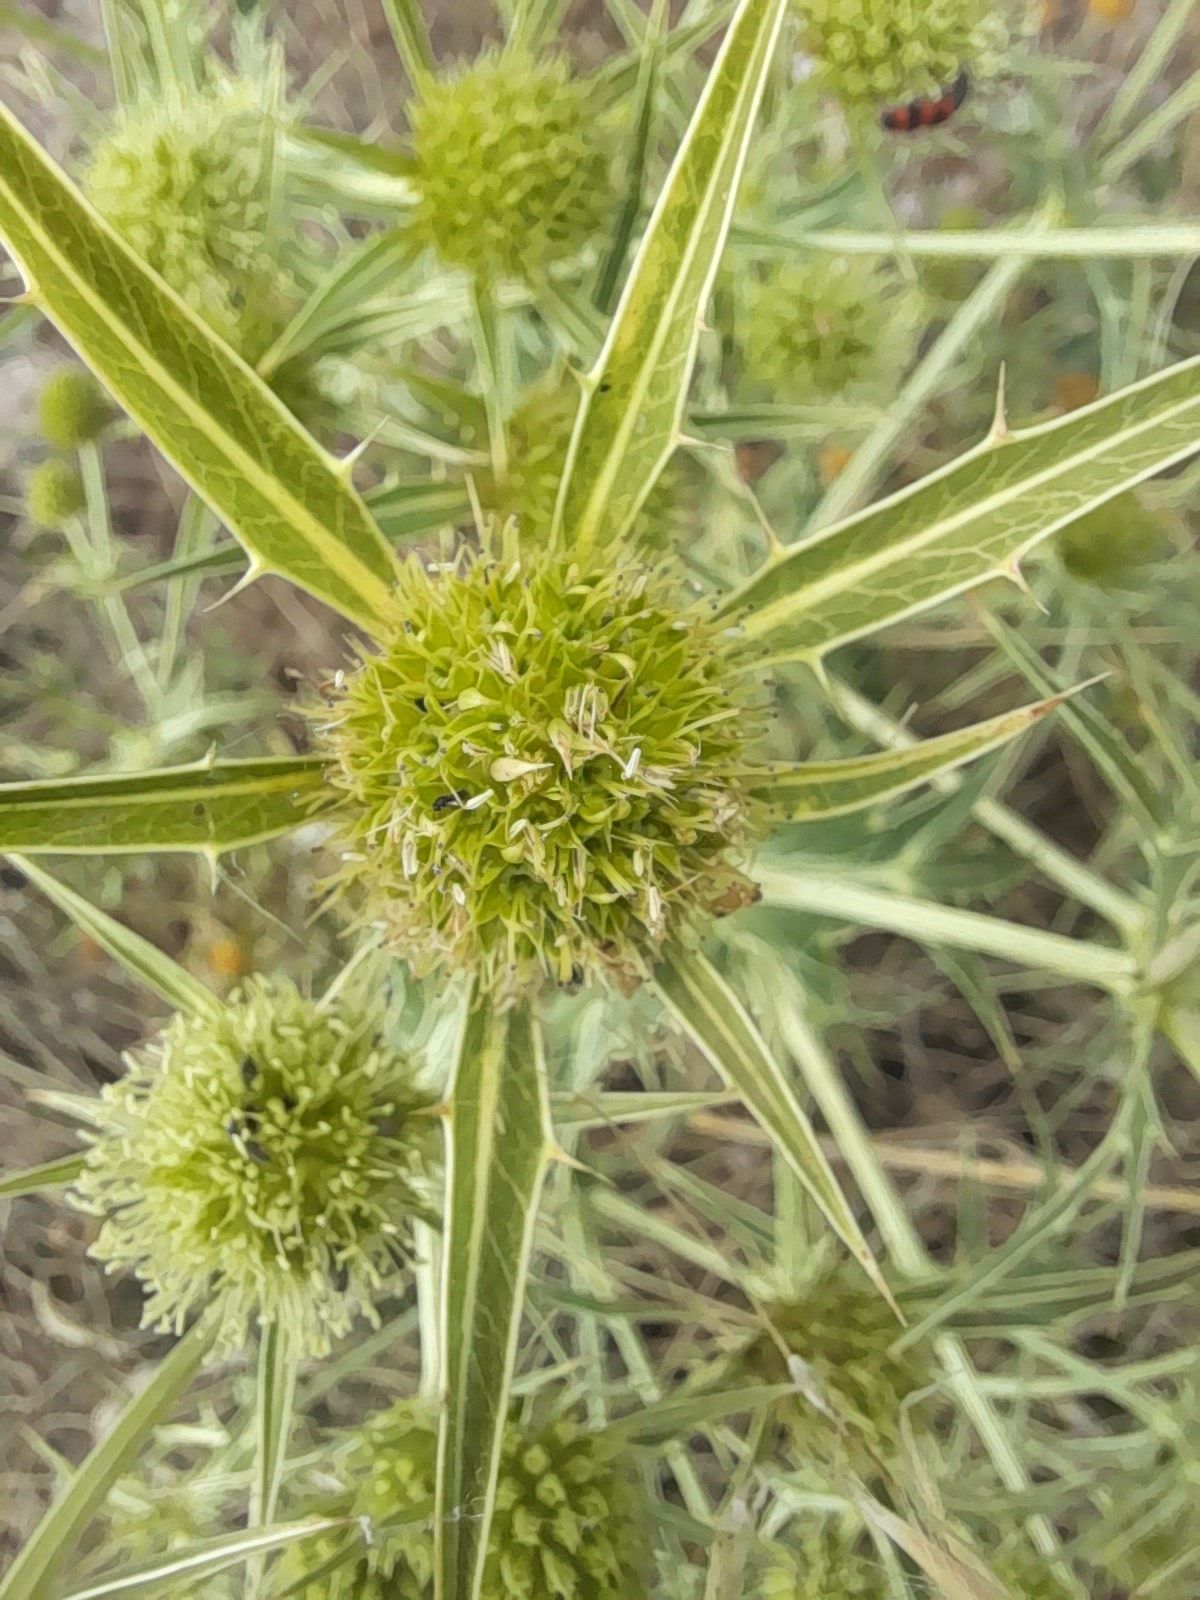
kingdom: Plantae
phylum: Tracheophyta
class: Magnoliopsida
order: Apiales
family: Apiaceae
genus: Eryngium
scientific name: Eryngium campestre
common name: Field eryngo
